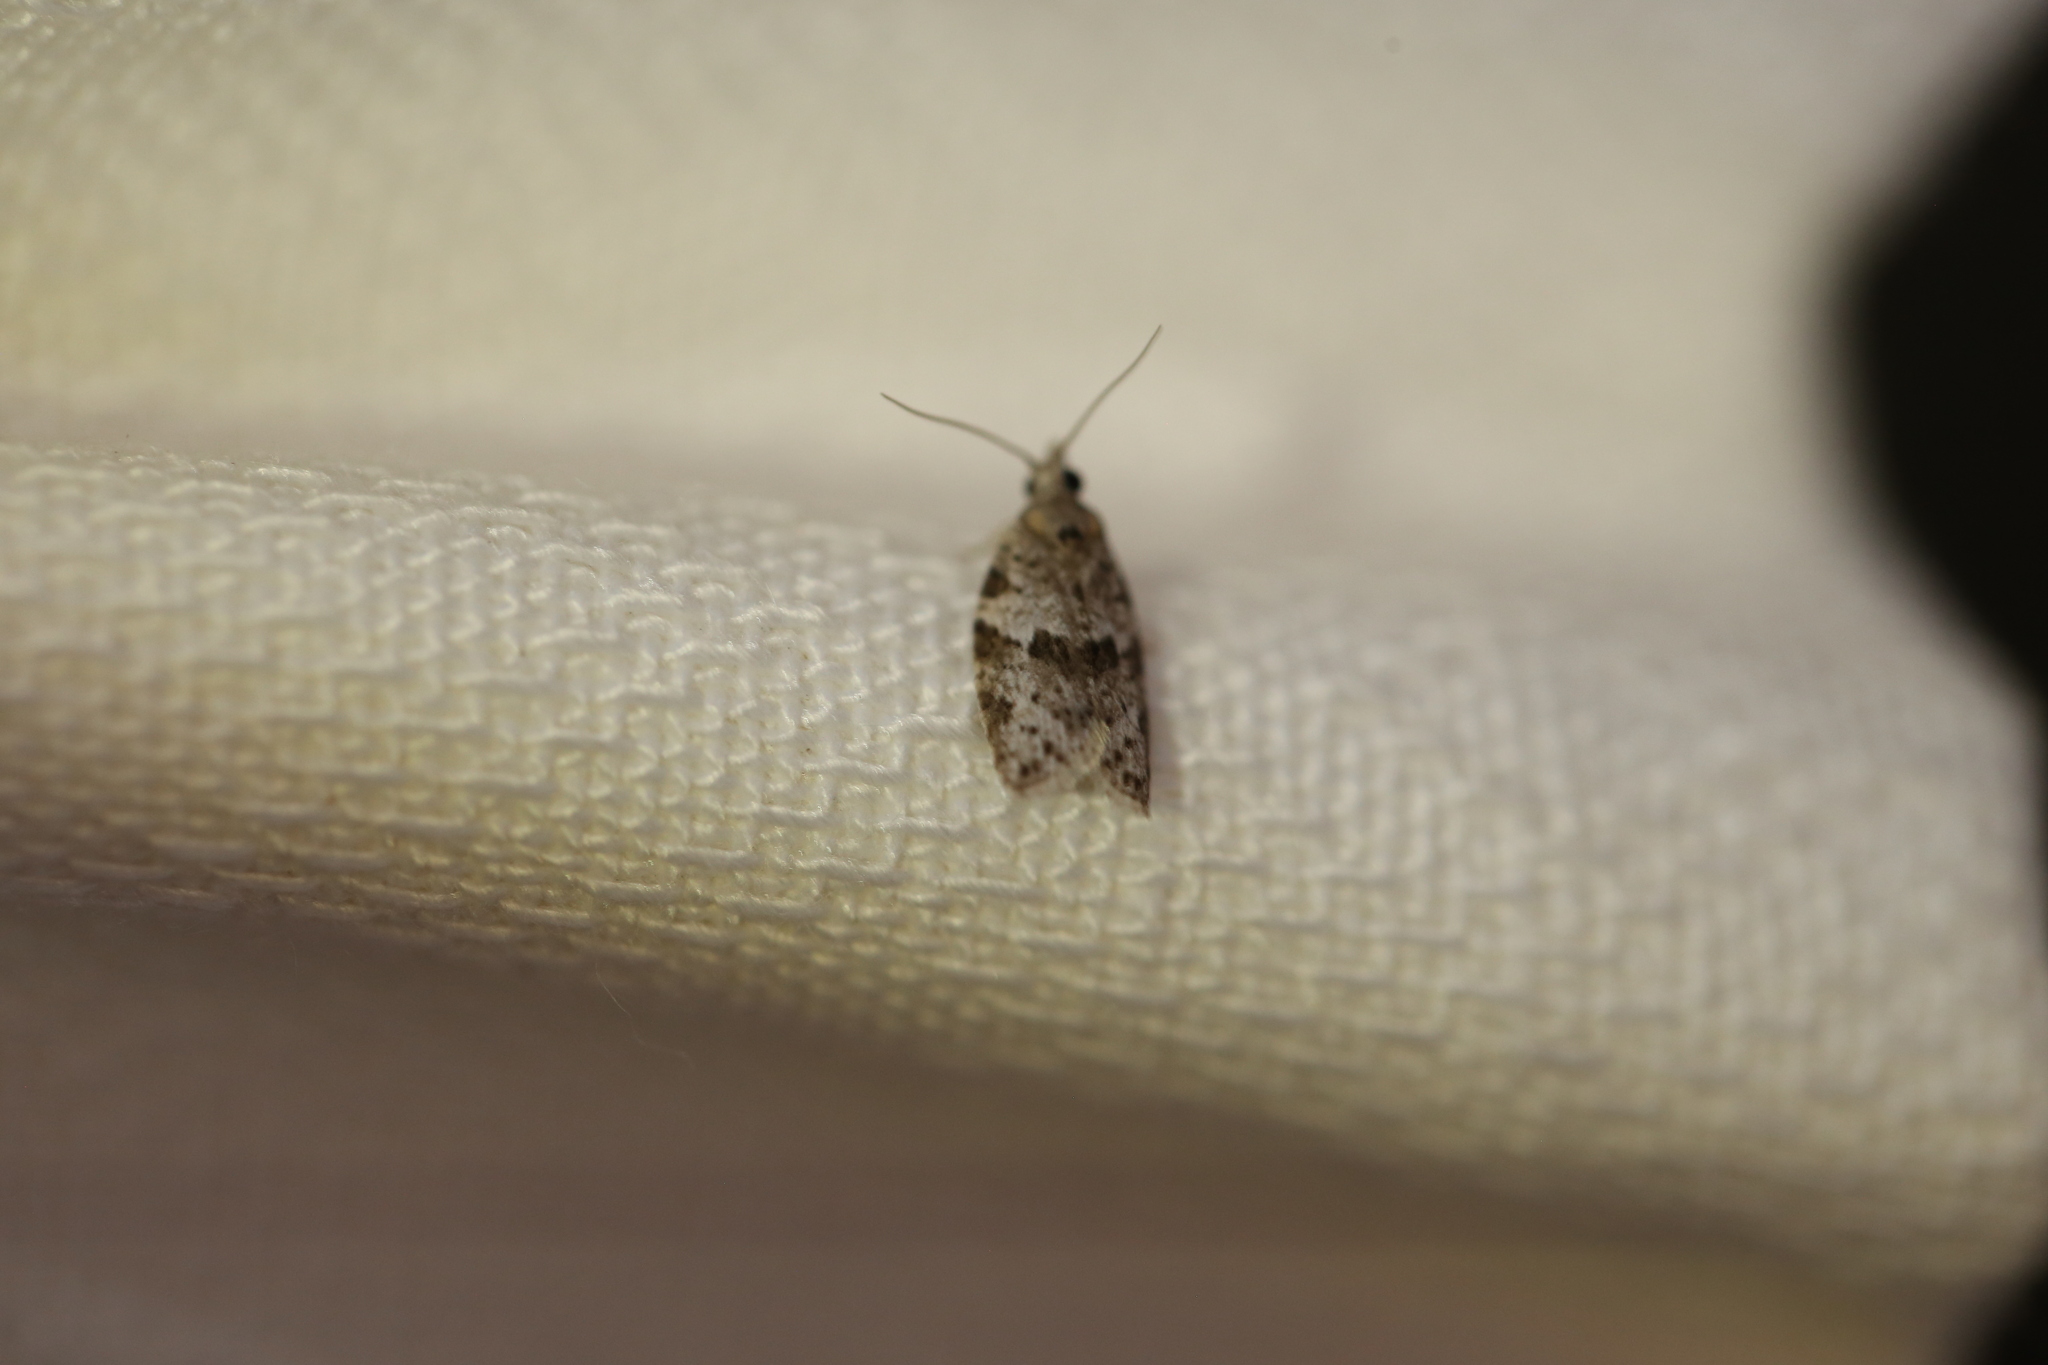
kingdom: Animalia
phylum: Arthropoda
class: Insecta
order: Lepidoptera
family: Tortricidae
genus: Isotenes
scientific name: Isotenes miserana
